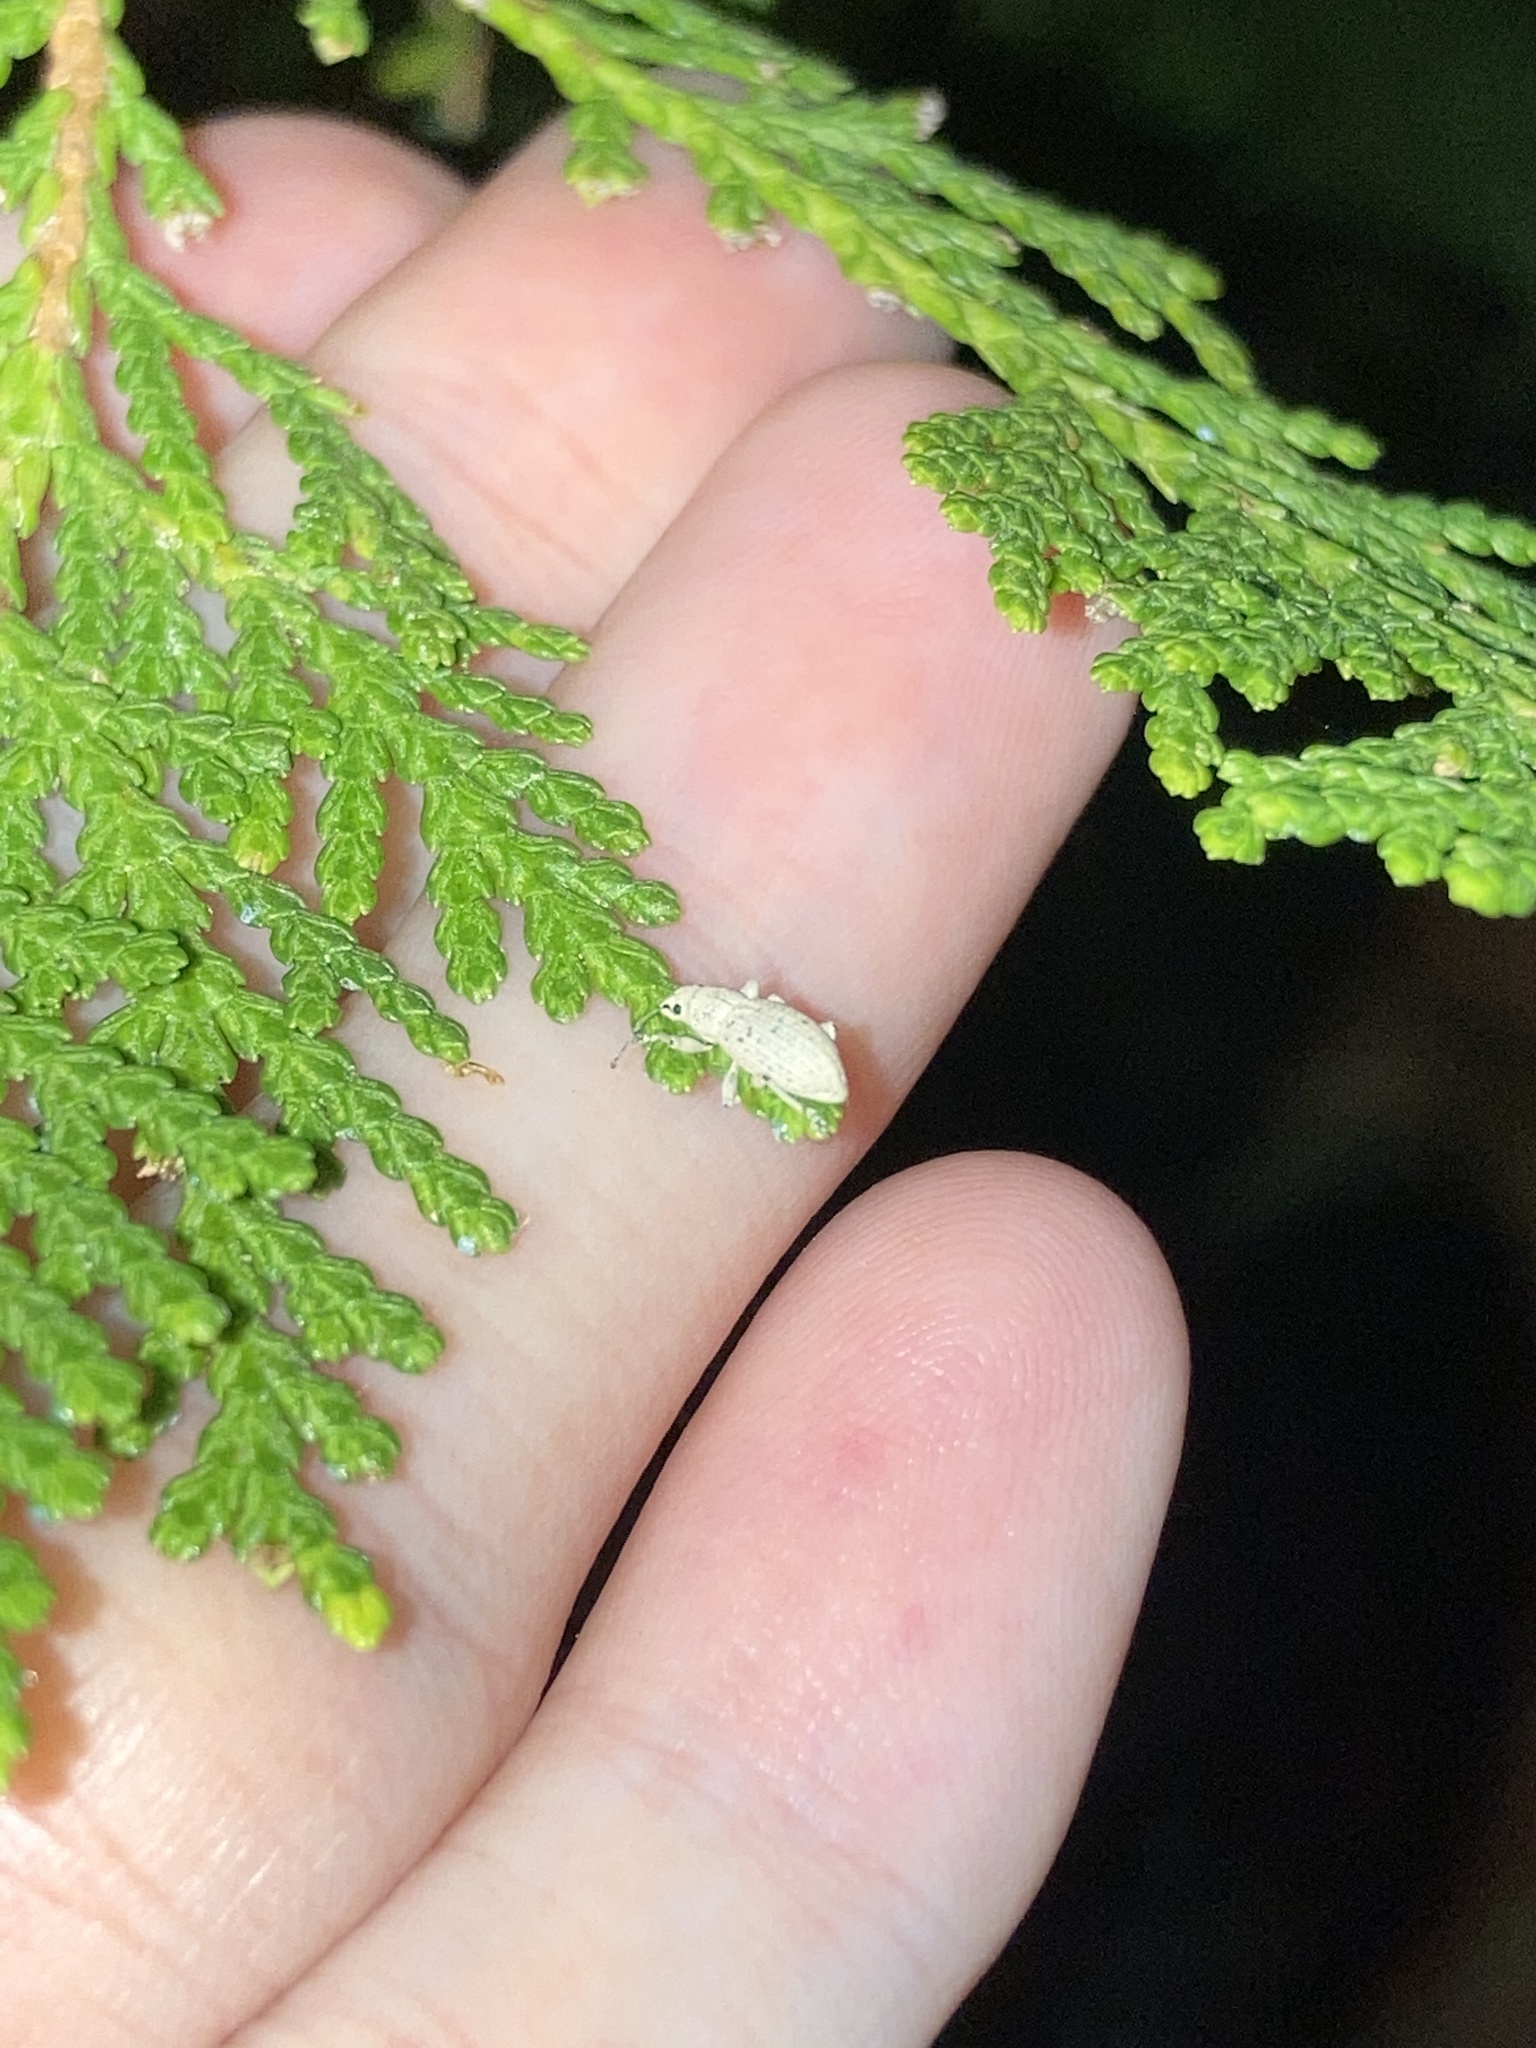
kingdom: Animalia
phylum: Arthropoda
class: Insecta
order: Coleoptera
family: Curculionidae
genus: Artipus
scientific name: Artipus floridanus
